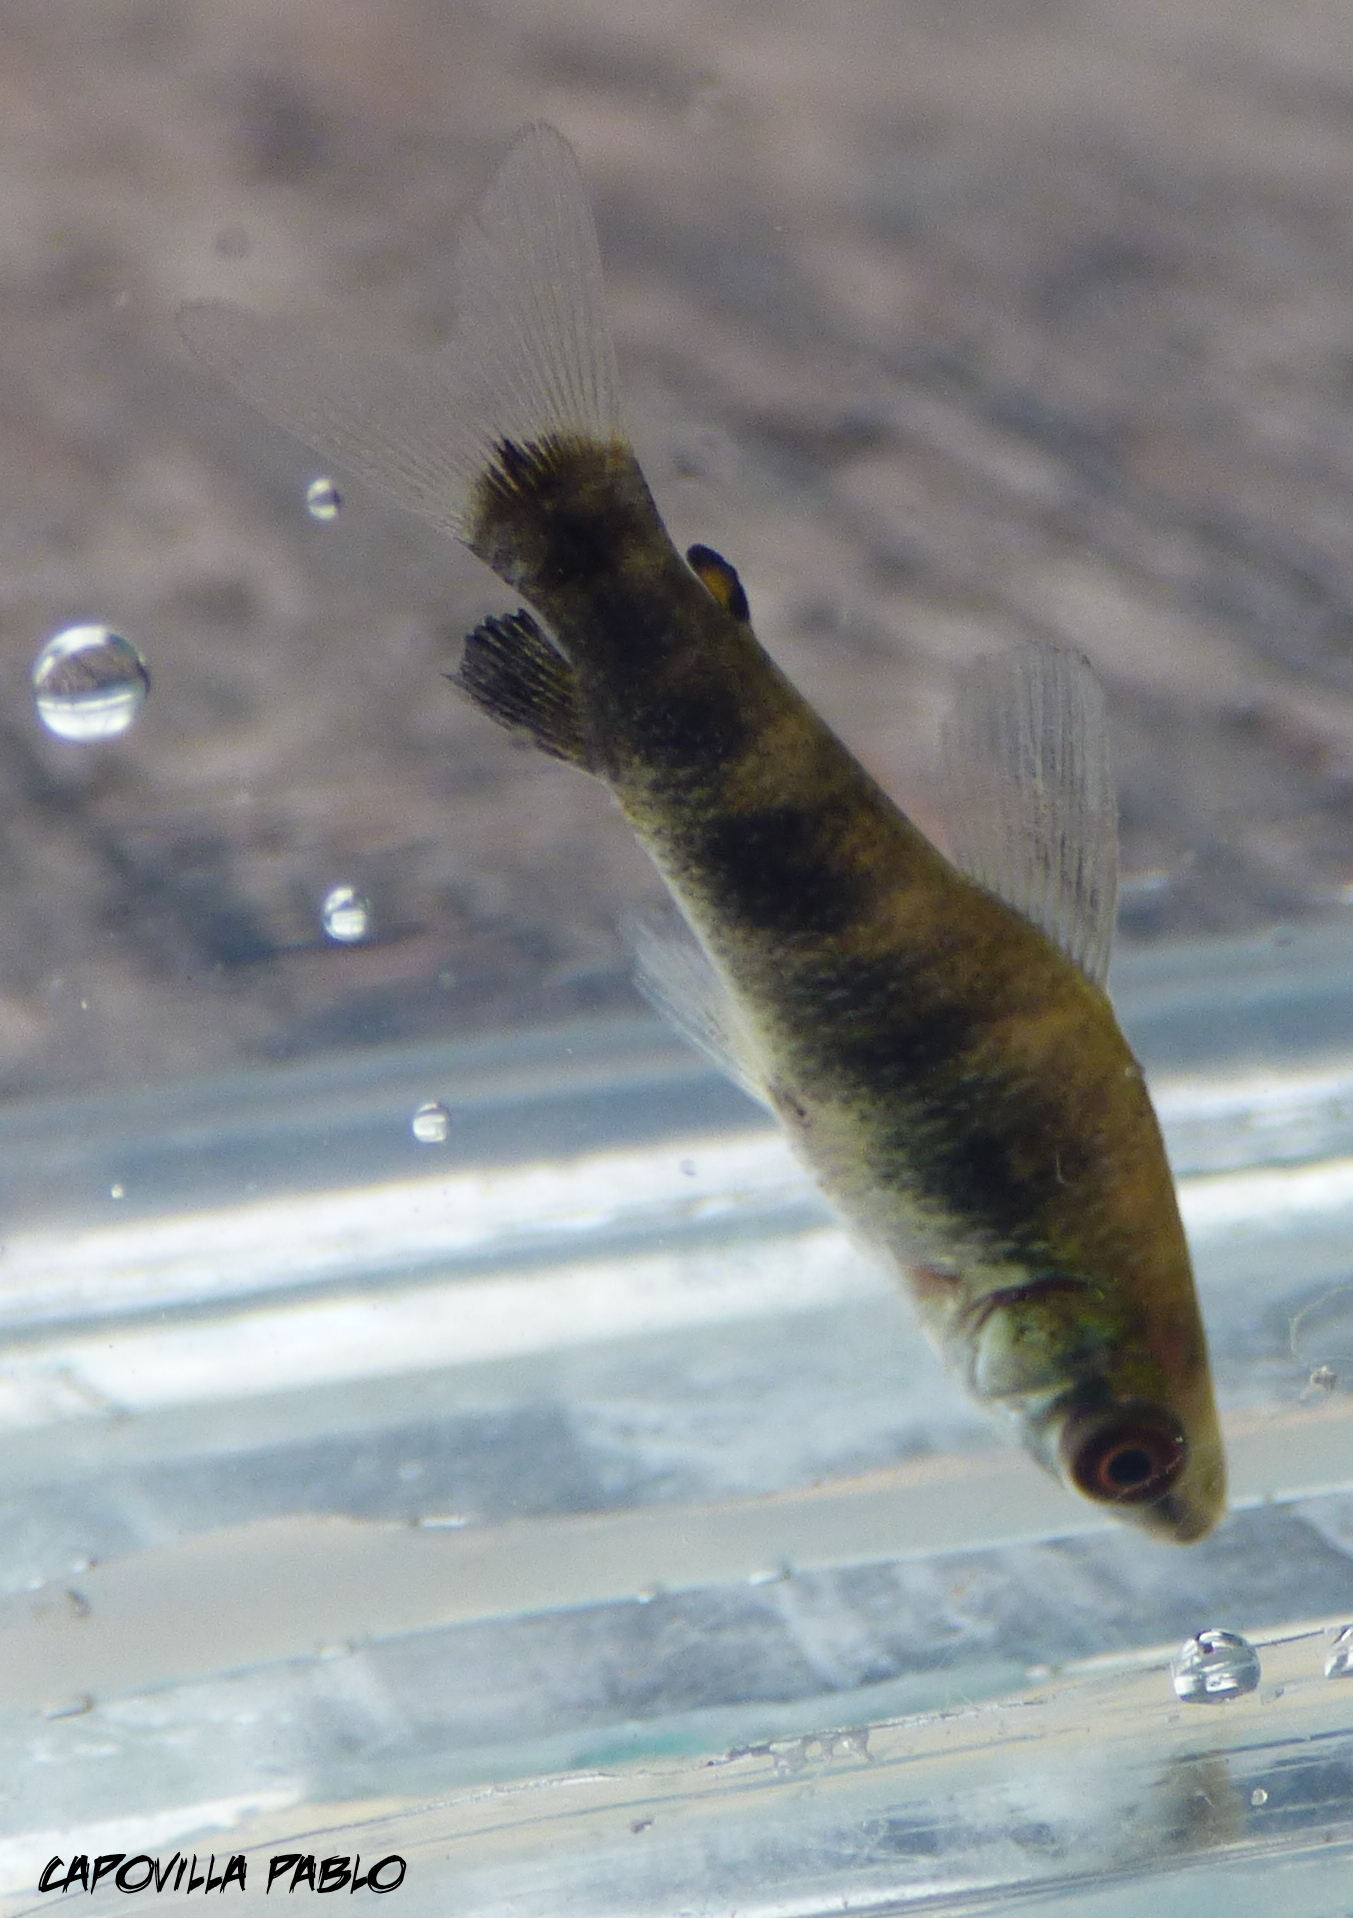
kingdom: Animalia
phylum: Chordata
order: Characiformes
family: Anostomidae
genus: Leporinus
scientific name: Leporinus obtusidens
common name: Characin
